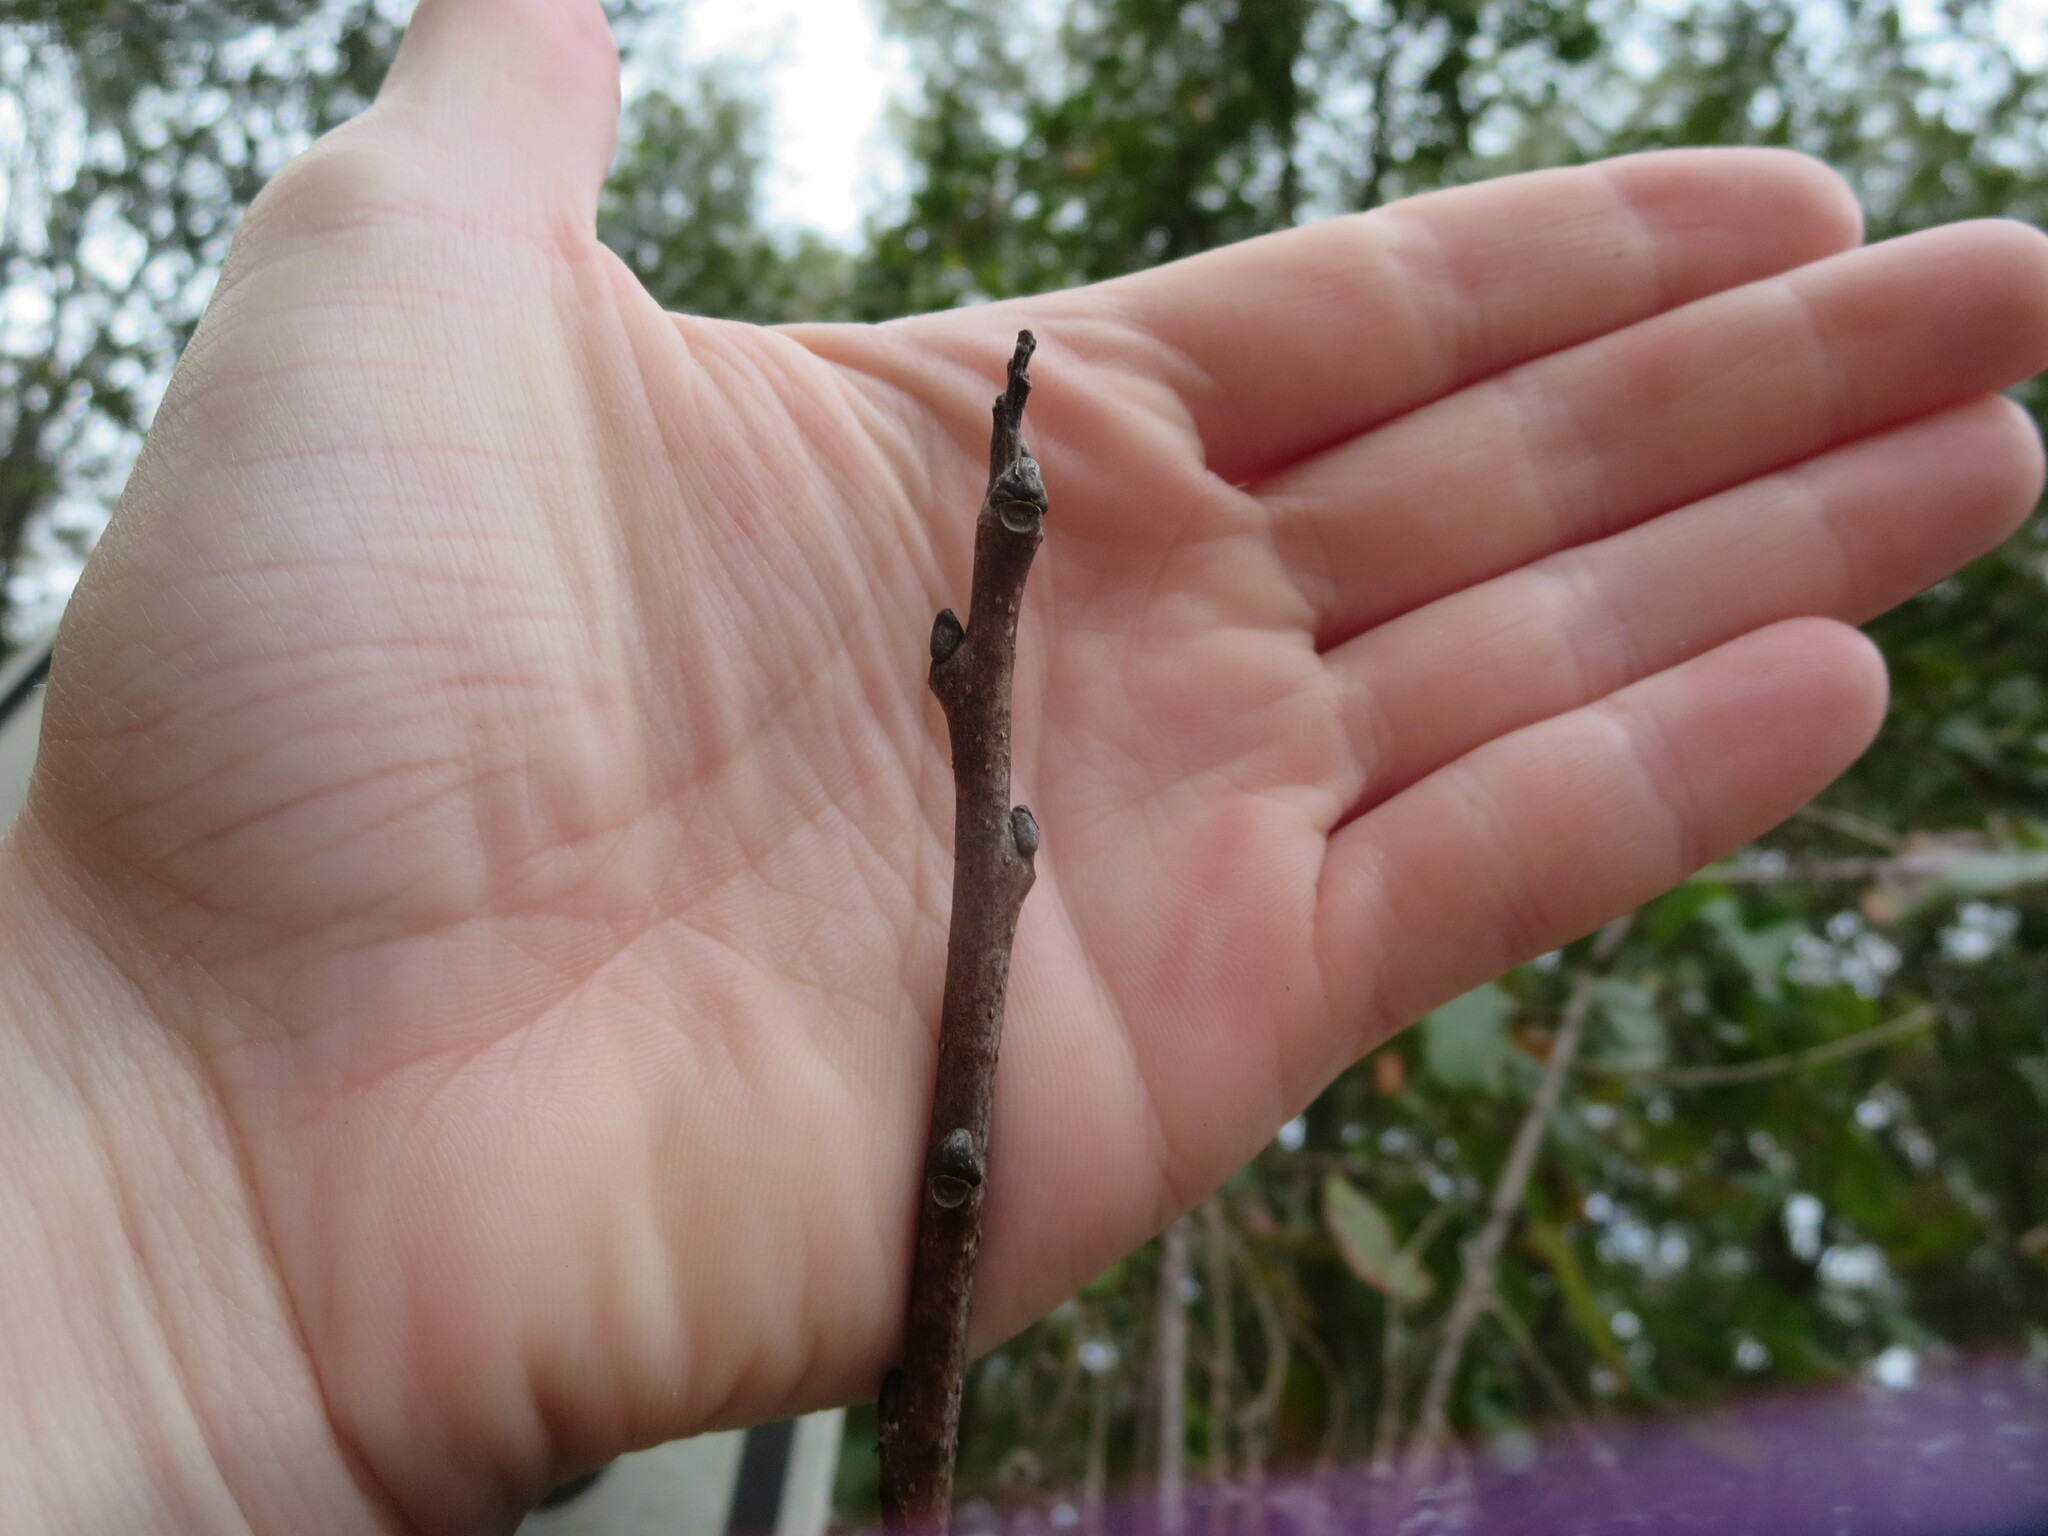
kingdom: Plantae
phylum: Tracheophyta
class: Magnoliopsida
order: Ericales
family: Ebenaceae
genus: Diospyros
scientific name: Diospyros virginiana
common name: Persimmon
